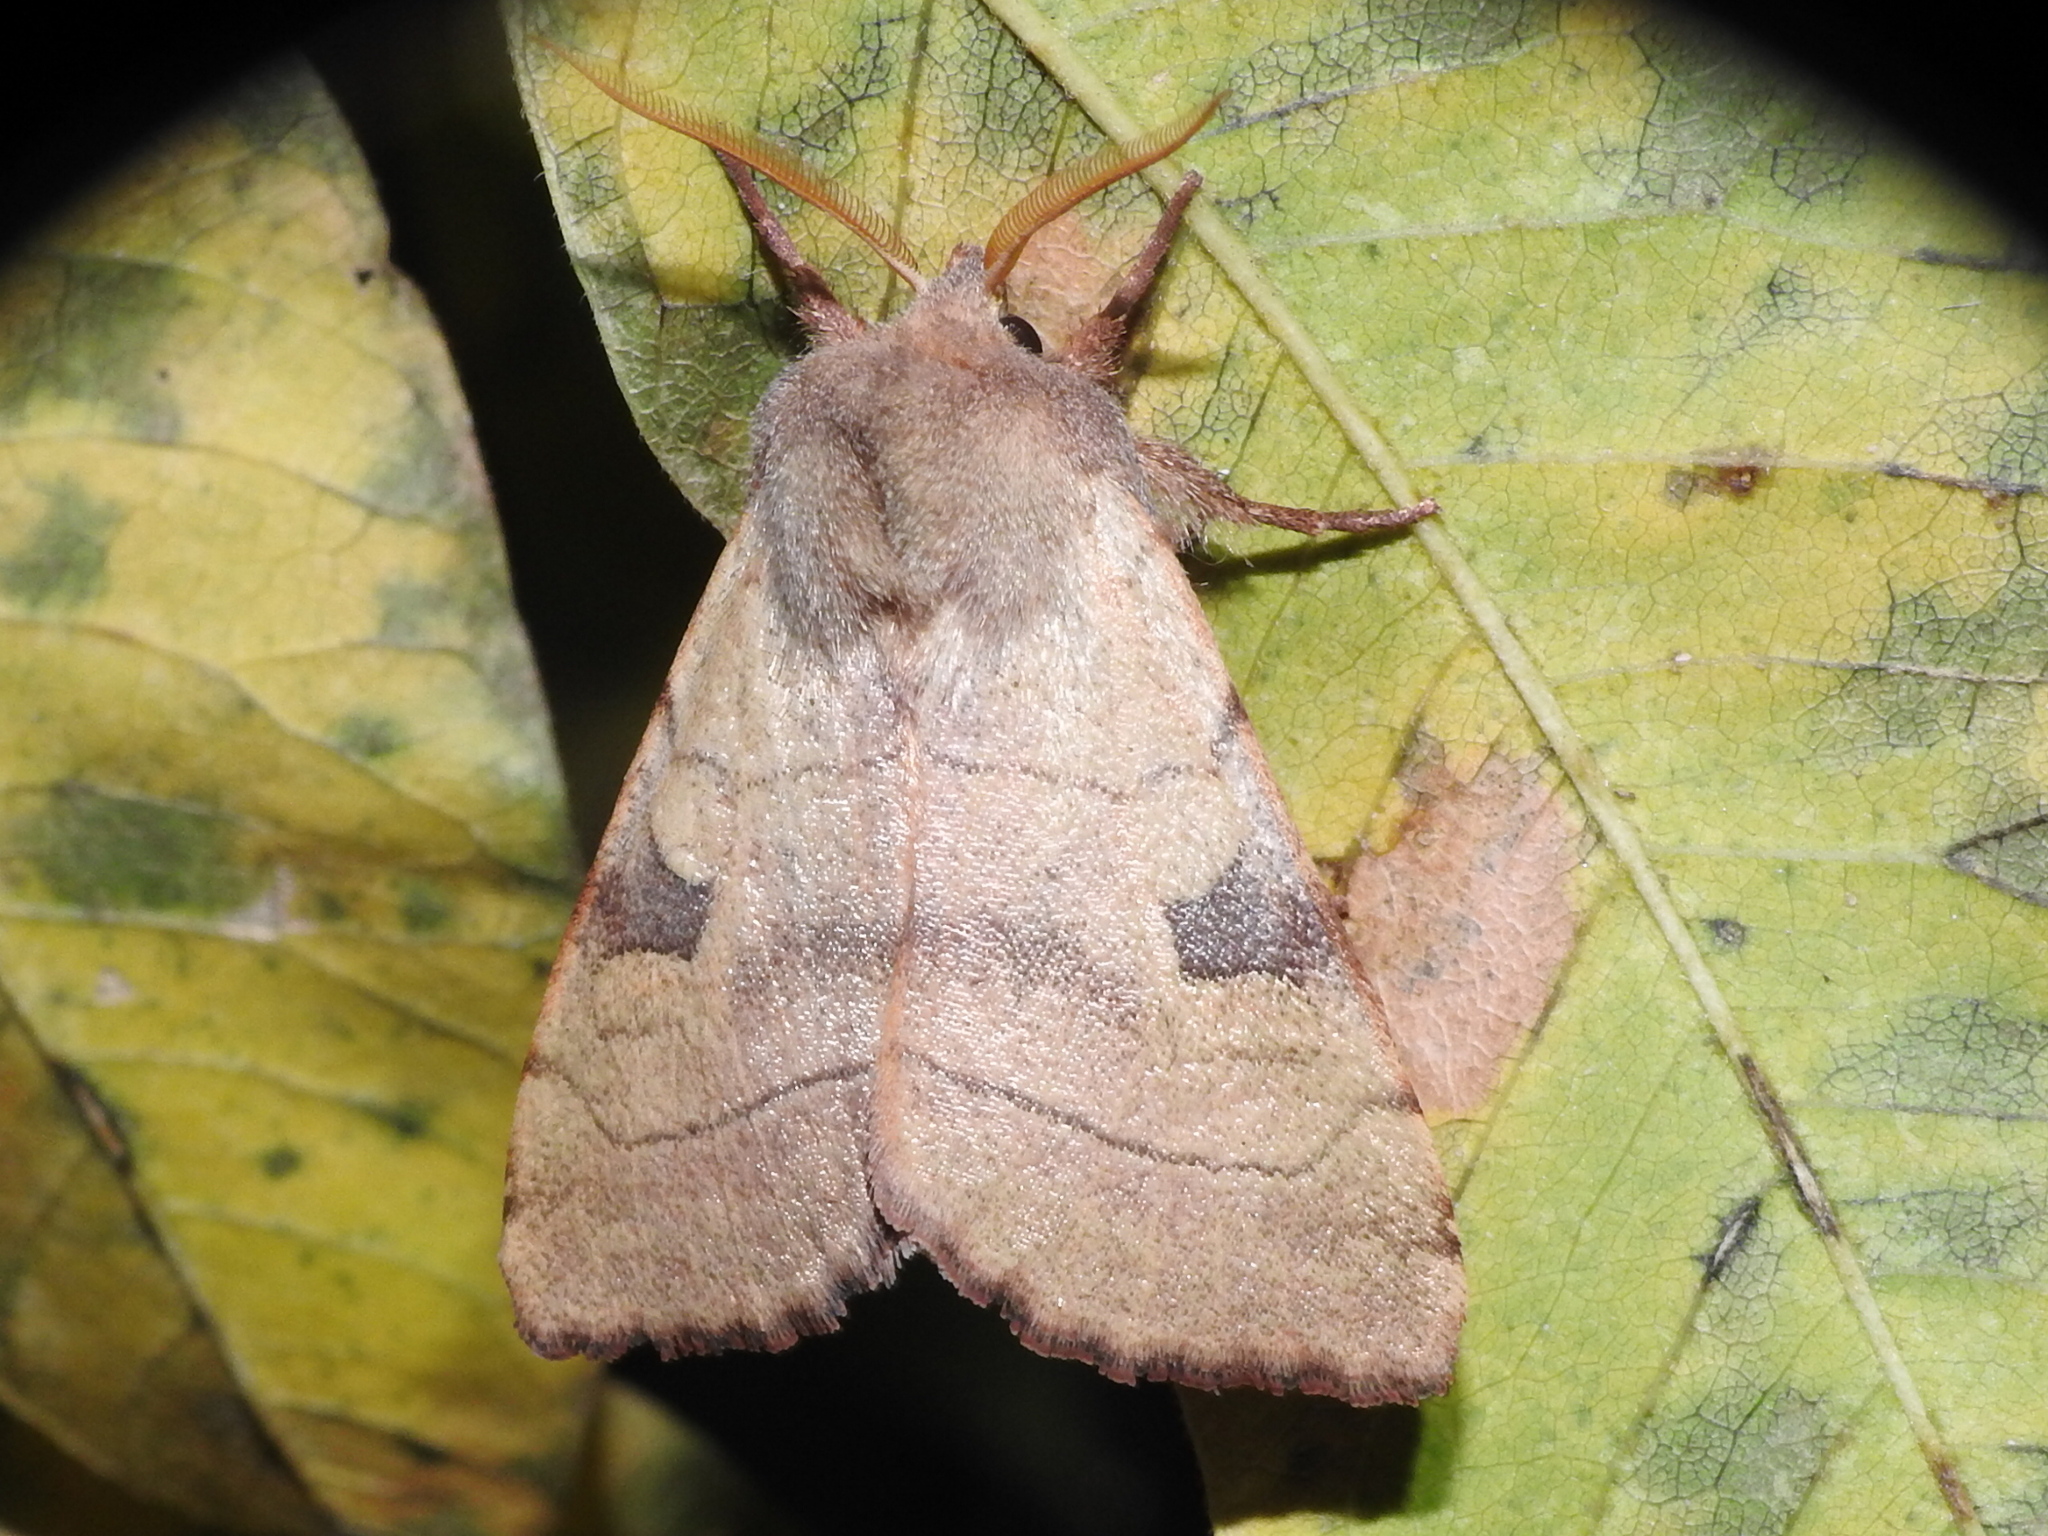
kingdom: Animalia
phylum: Arthropoda
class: Insecta
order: Lepidoptera
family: Noctuidae
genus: Choephora
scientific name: Choephora fungorum
